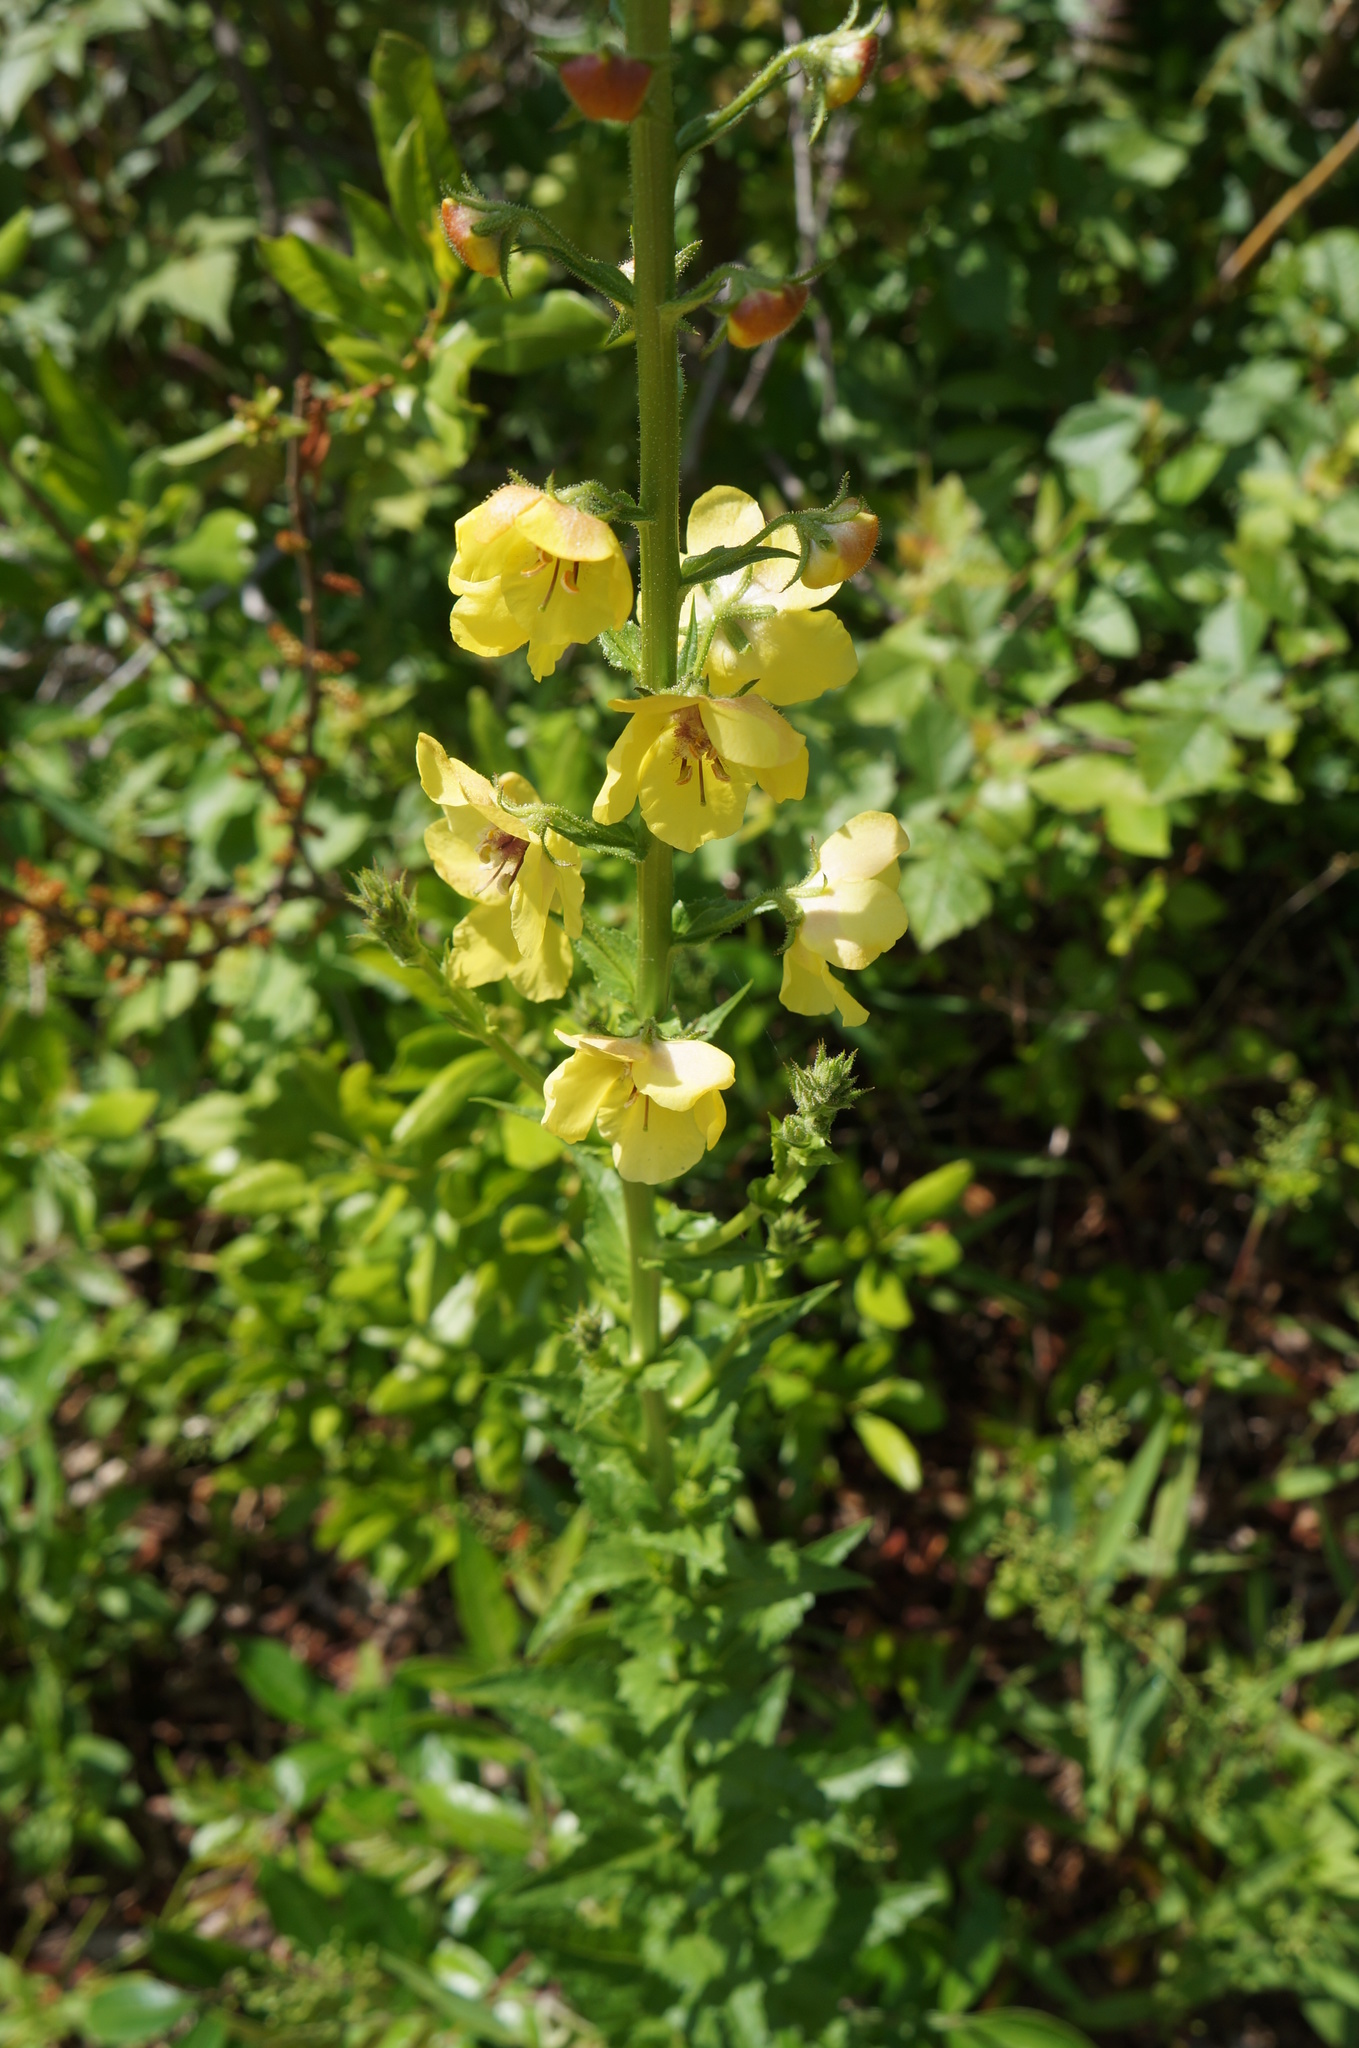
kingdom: Plantae
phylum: Tracheophyta
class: Magnoliopsida
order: Lamiales
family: Scrophulariaceae
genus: Verbascum
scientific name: Verbascum blattaria
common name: Moth mullein
